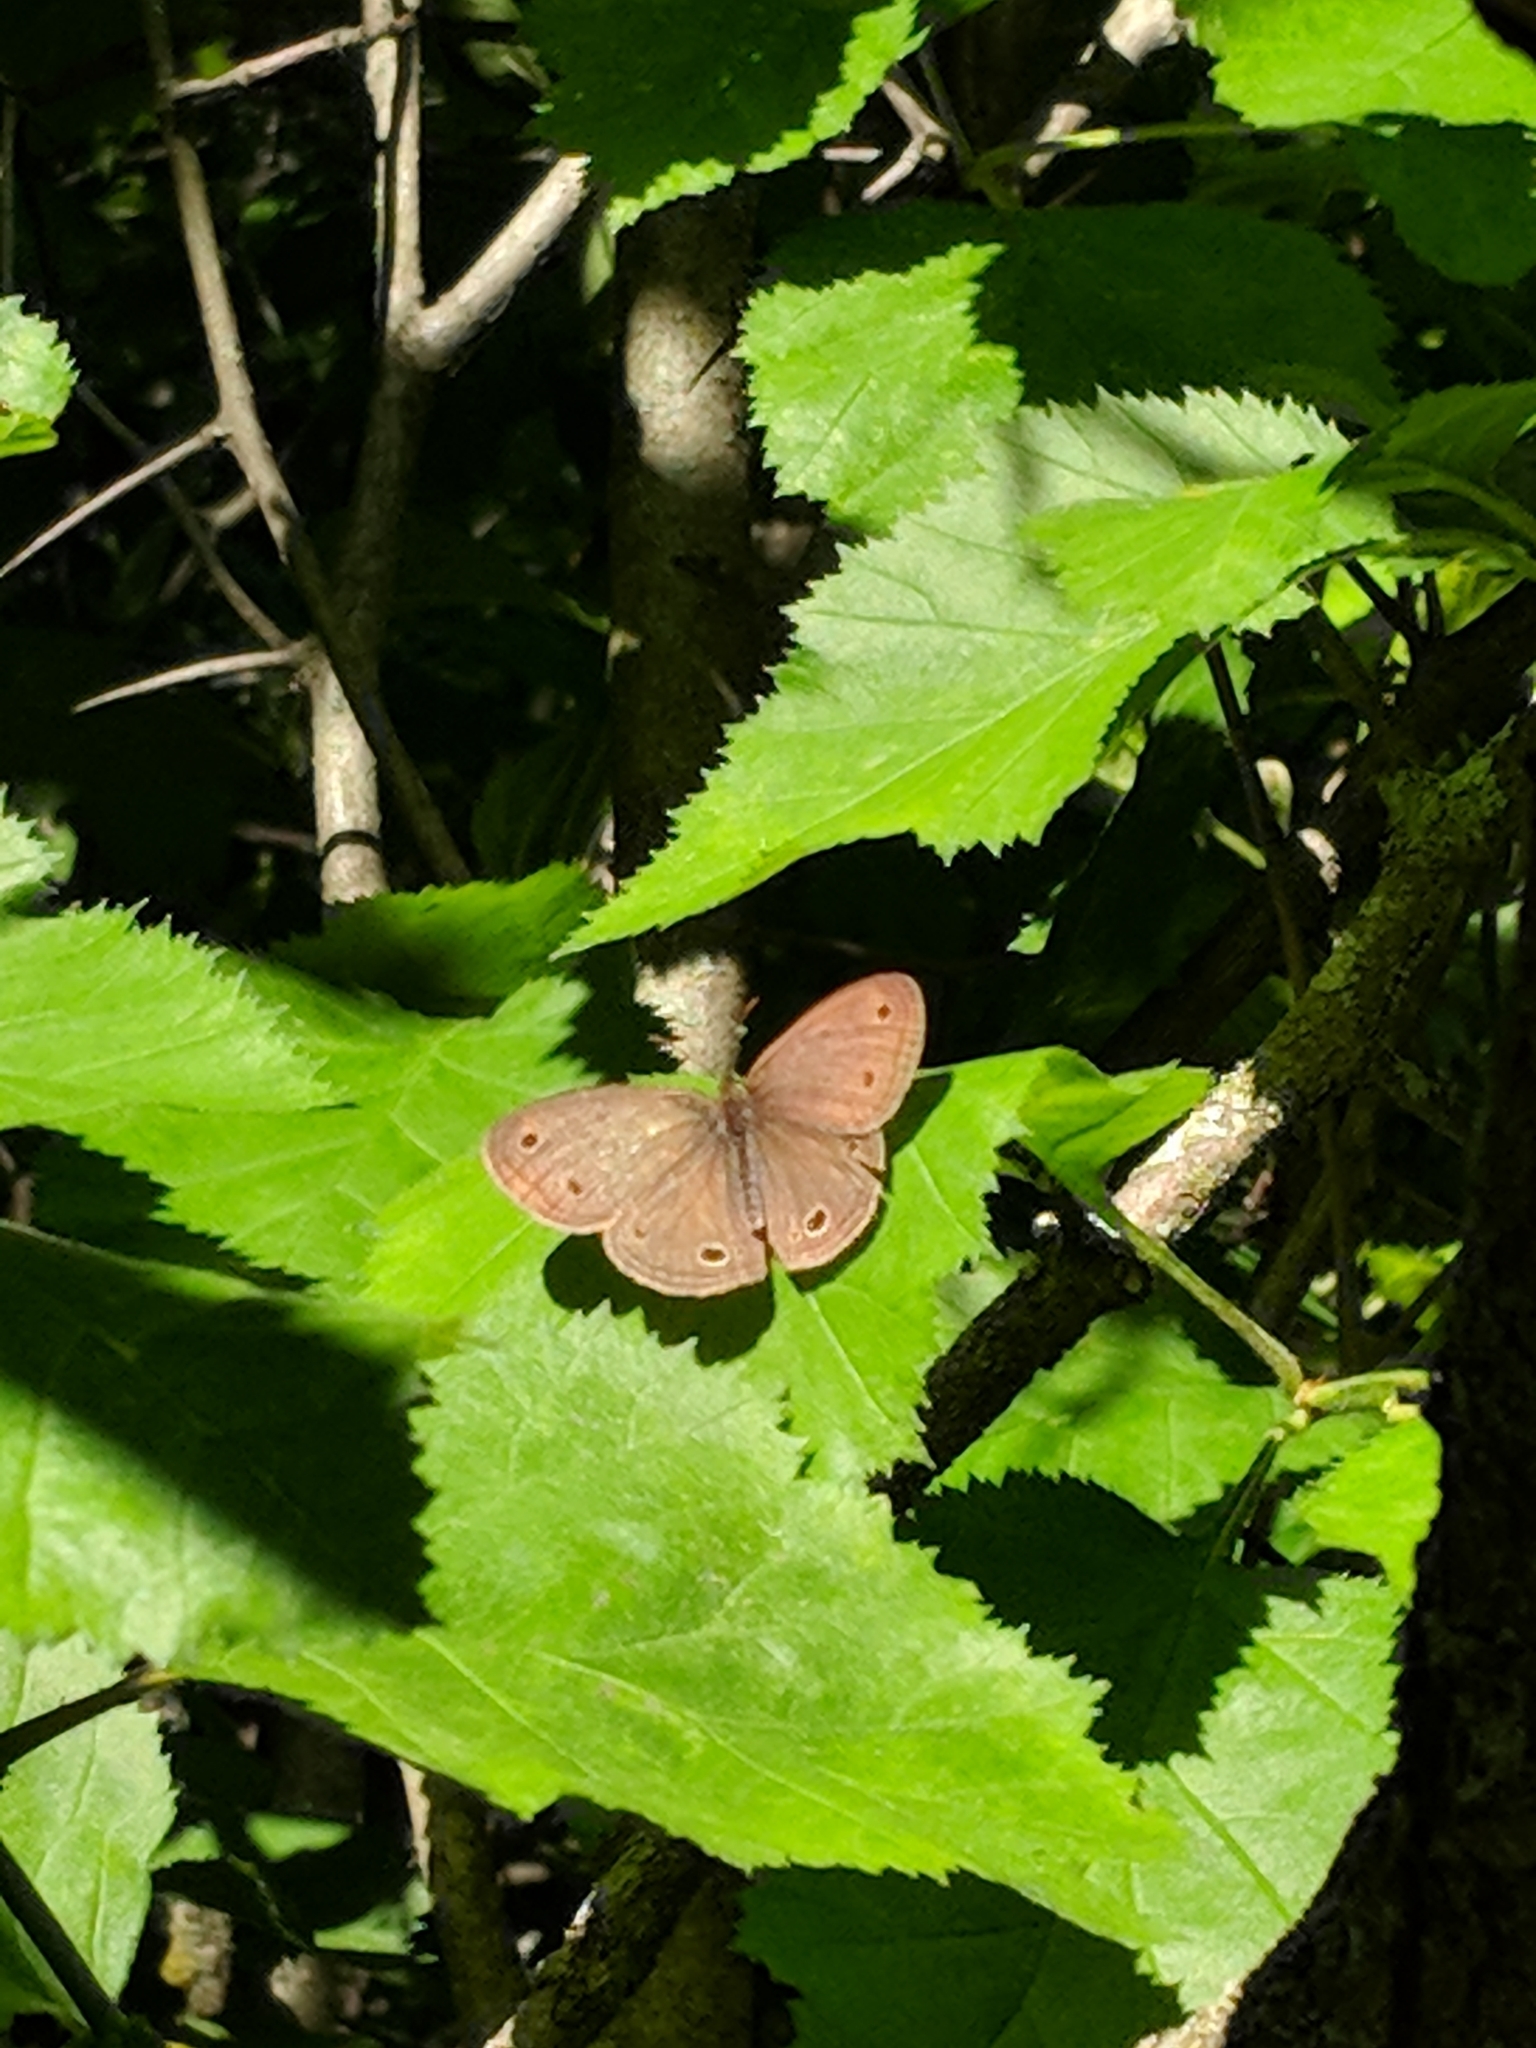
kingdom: Animalia
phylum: Arthropoda
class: Insecta
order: Lepidoptera
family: Nymphalidae
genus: Euptychia
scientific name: Euptychia cymela
